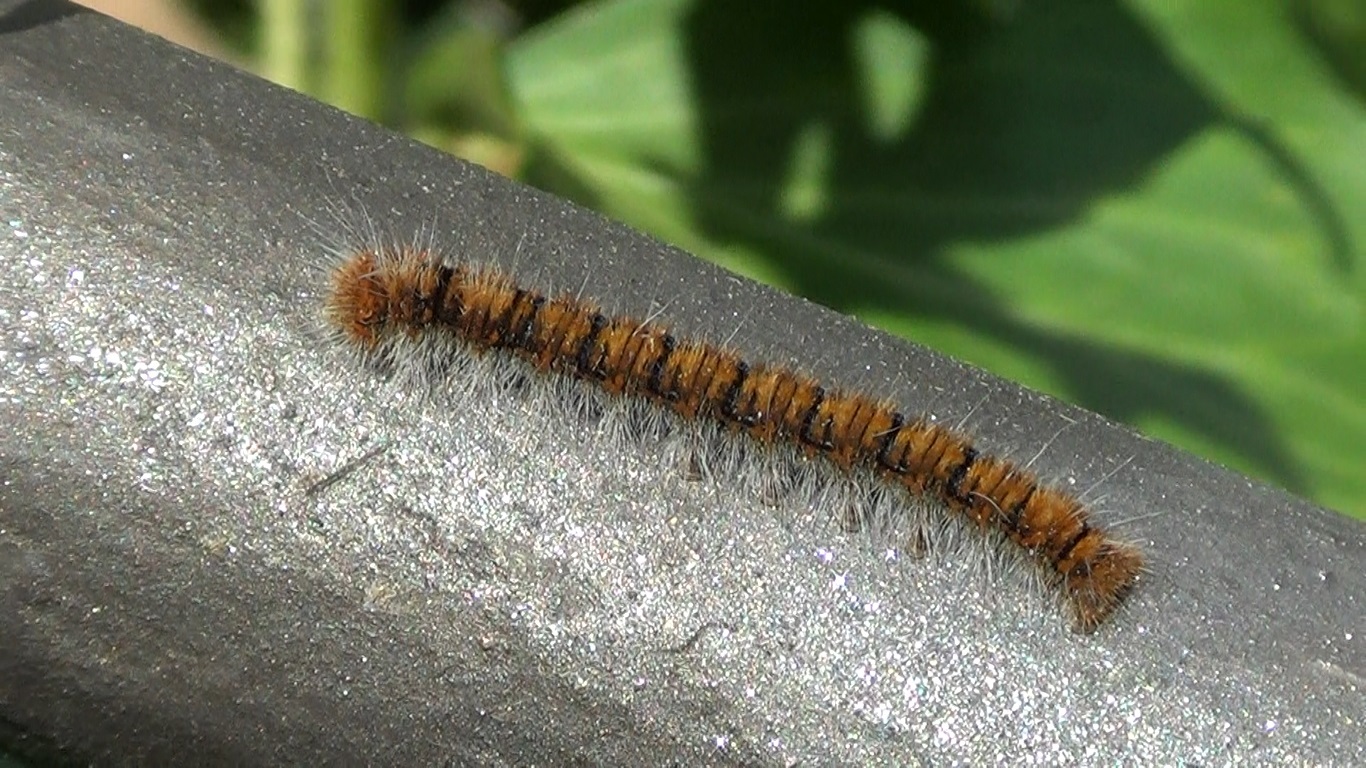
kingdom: Animalia
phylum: Arthropoda
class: Insecta
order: Lepidoptera
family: Lasiocampidae
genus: Lasiocampa
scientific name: Lasiocampa quercus
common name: Oak eggar
